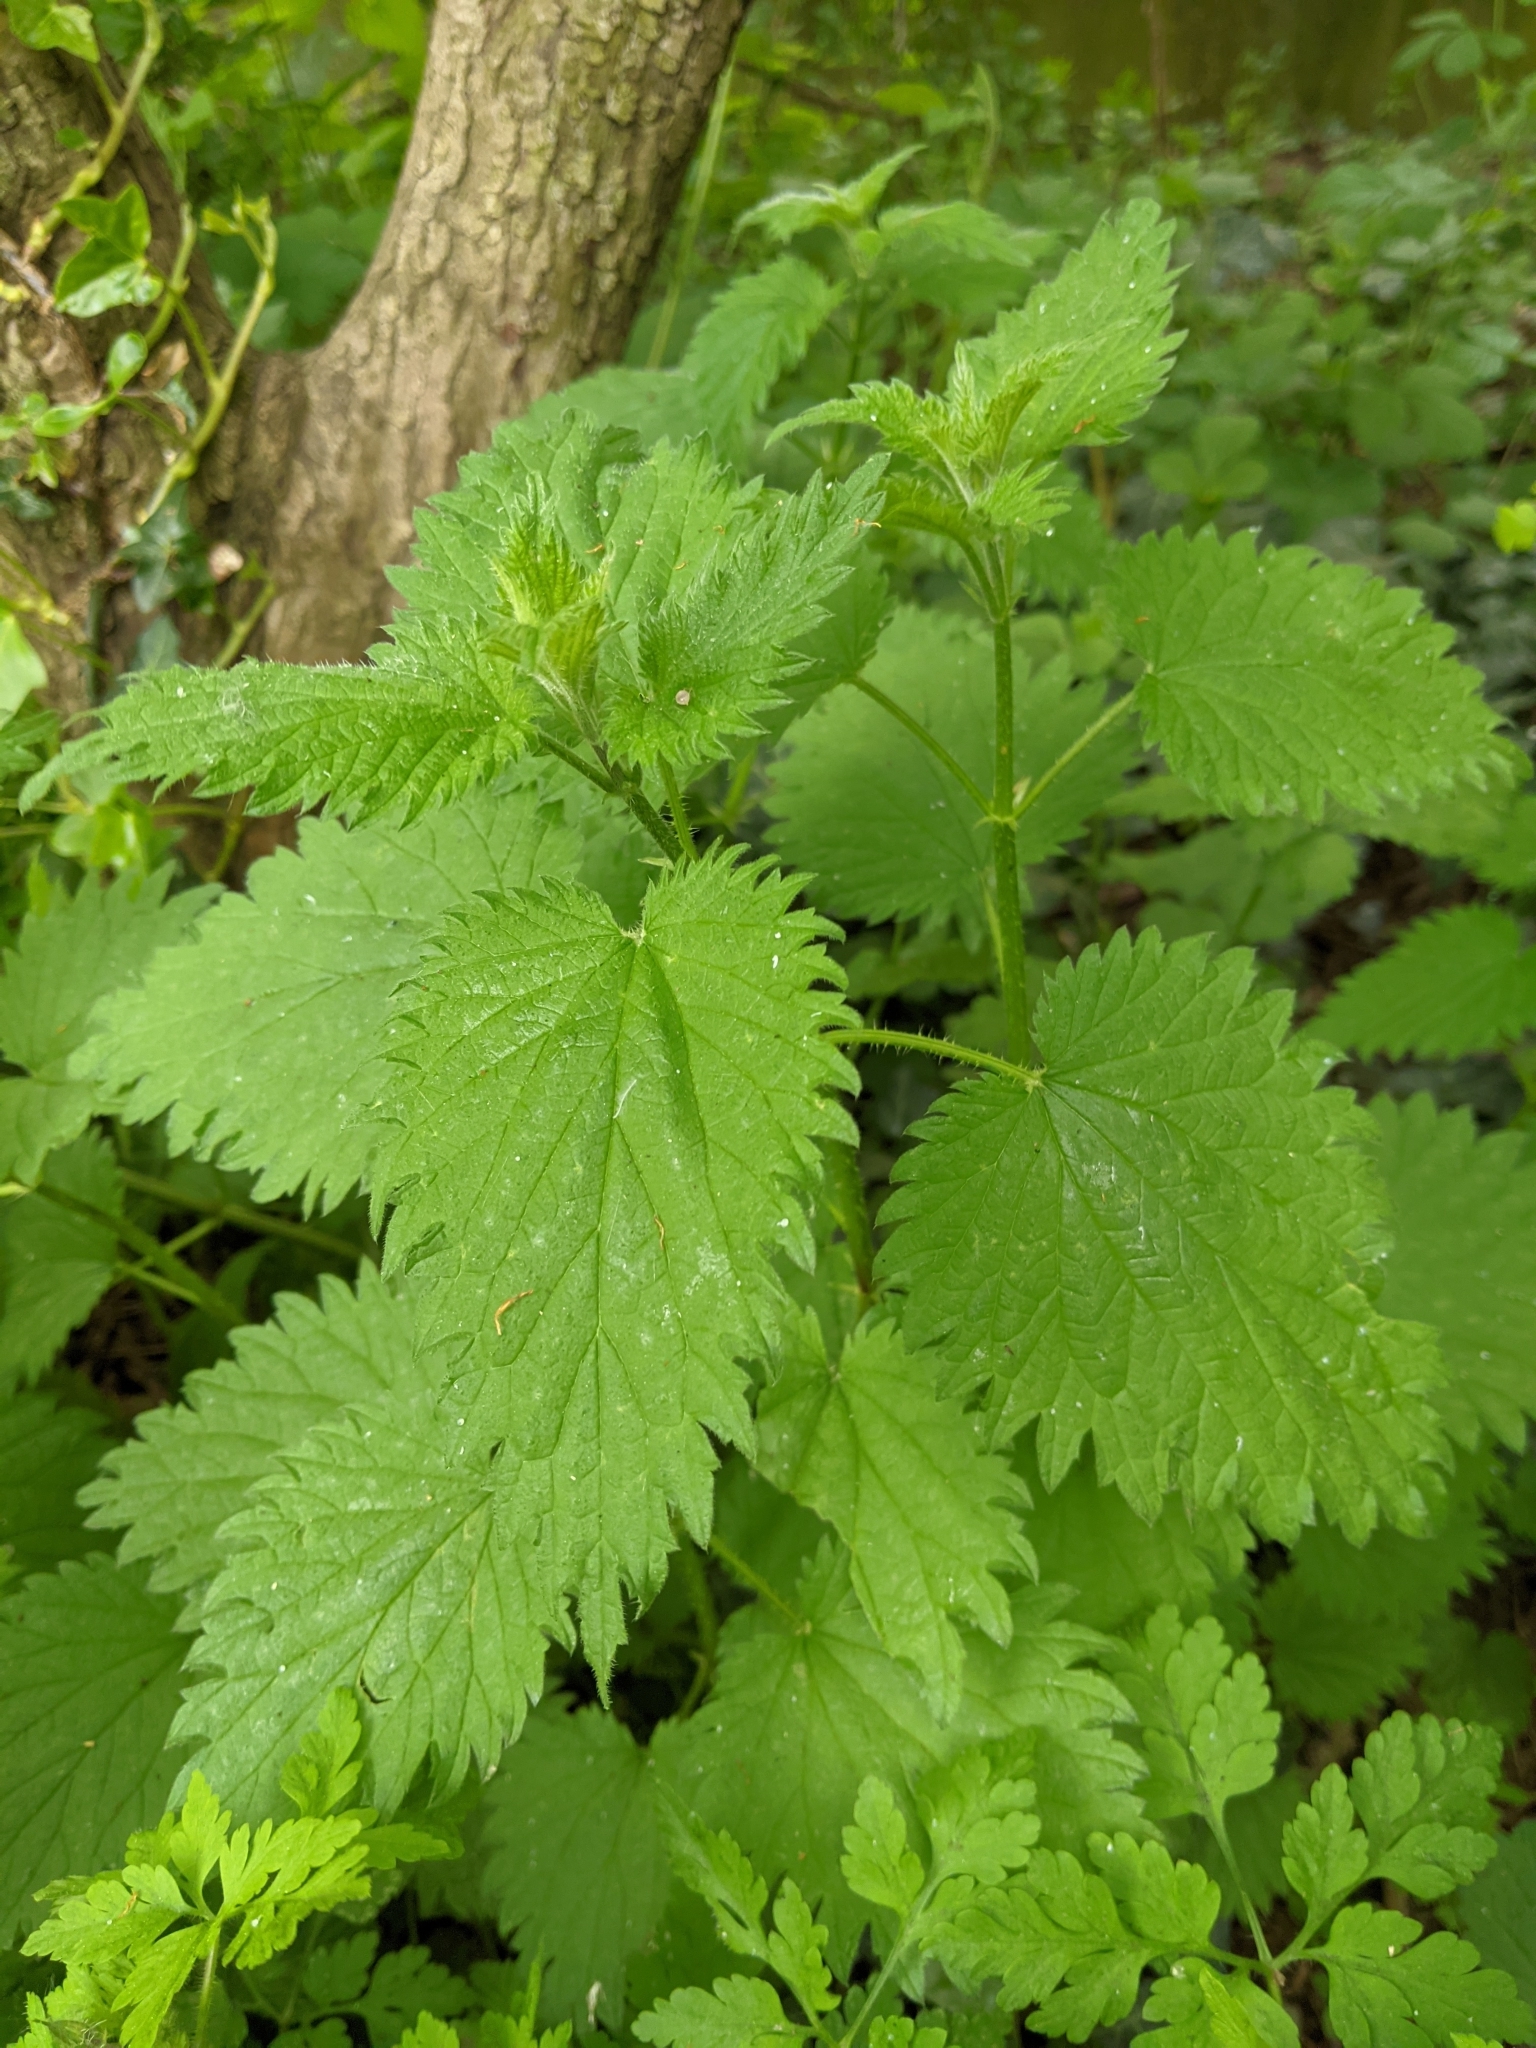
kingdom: Plantae
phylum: Tracheophyta
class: Magnoliopsida
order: Rosales
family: Urticaceae
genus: Urtica
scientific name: Urtica dioica
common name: Common nettle
